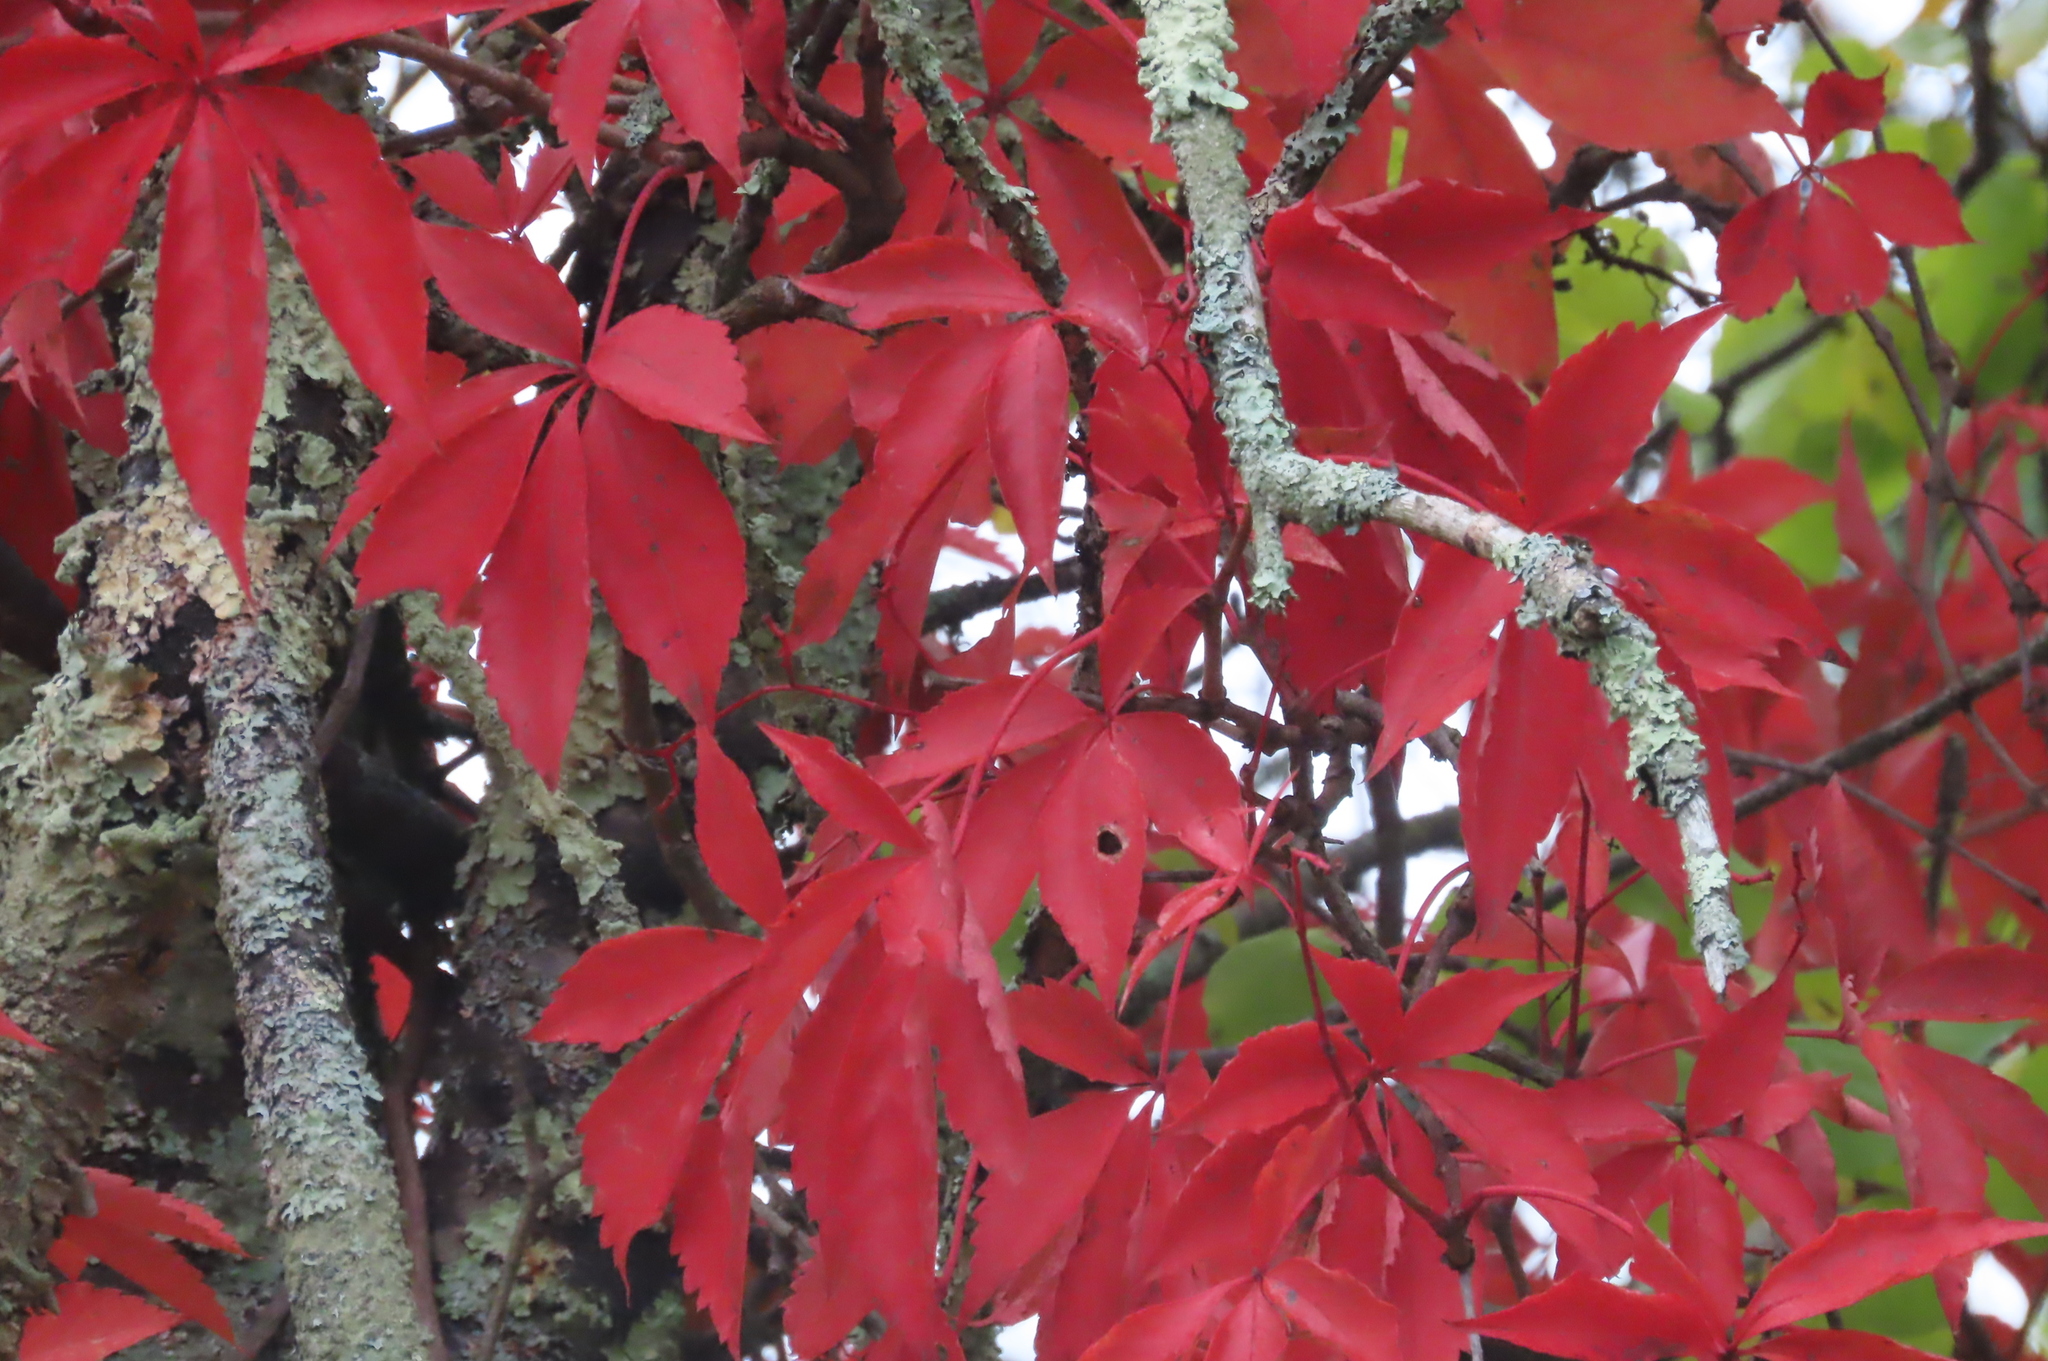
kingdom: Plantae
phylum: Tracheophyta
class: Magnoliopsida
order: Vitales
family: Vitaceae
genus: Parthenocissus
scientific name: Parthenocissus quinquefolia
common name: Virginia-creeper
